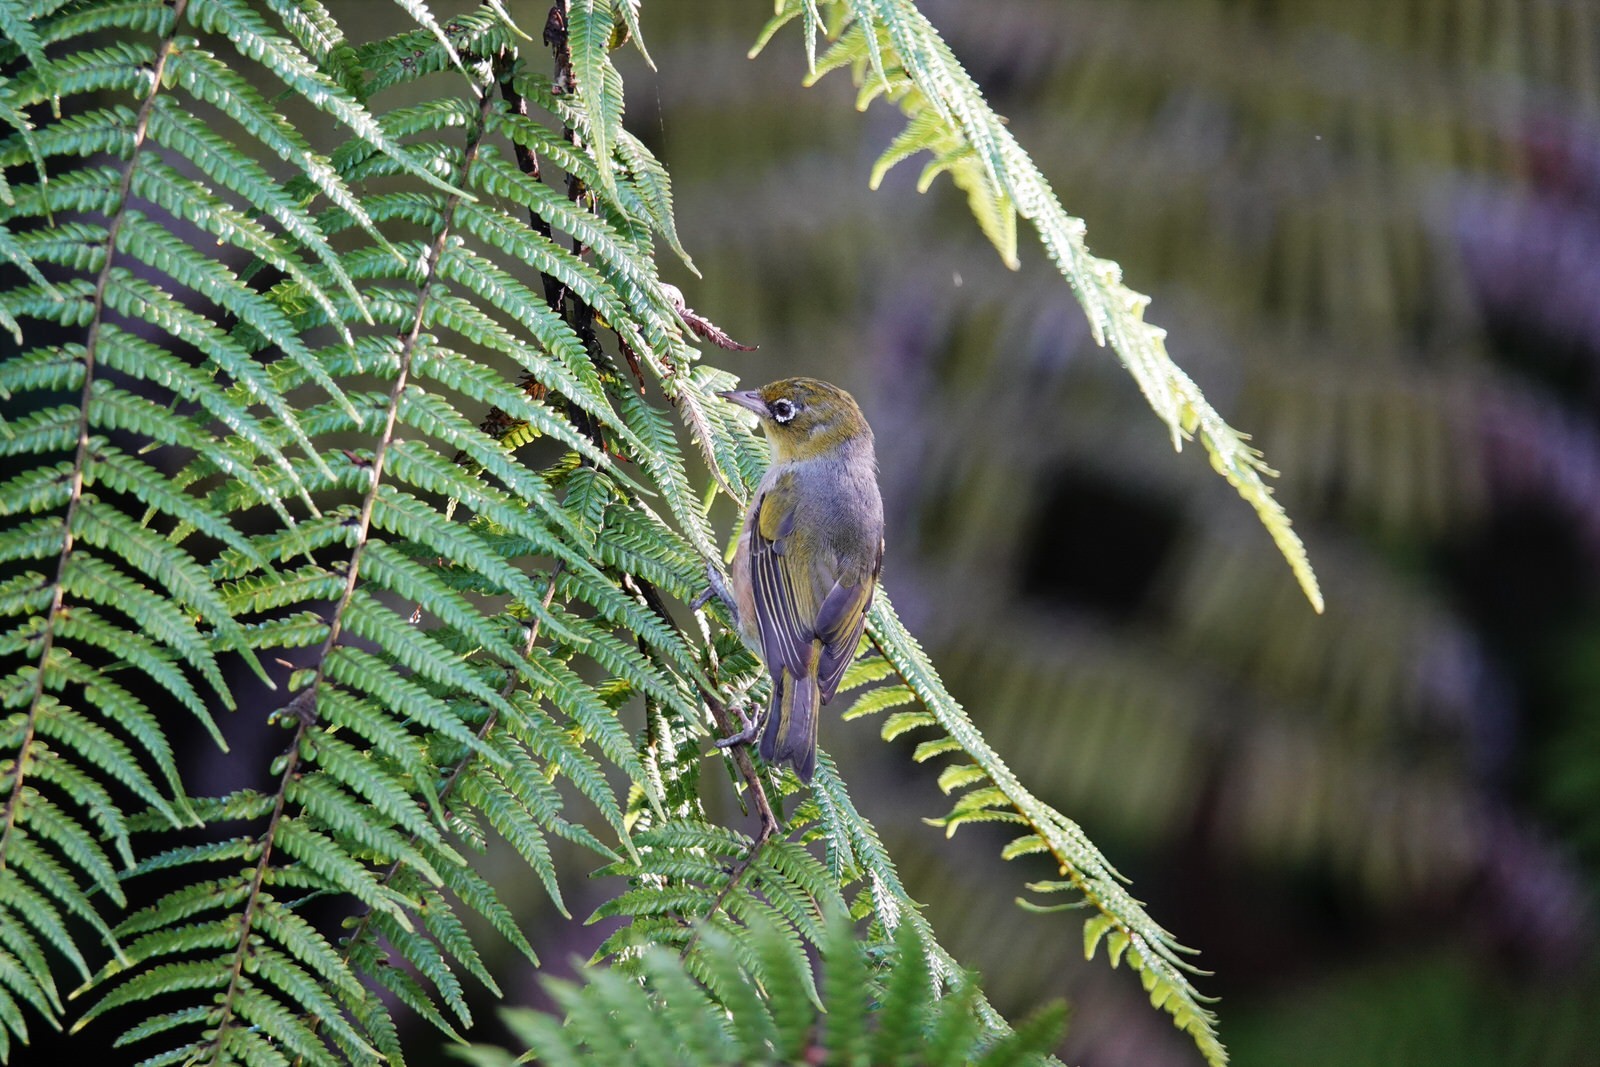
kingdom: Animalia
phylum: Chordata
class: Aves
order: Passeriformes
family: Zosteropidae
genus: Zosterops
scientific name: Zosterops lateralis
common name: Silvereye
